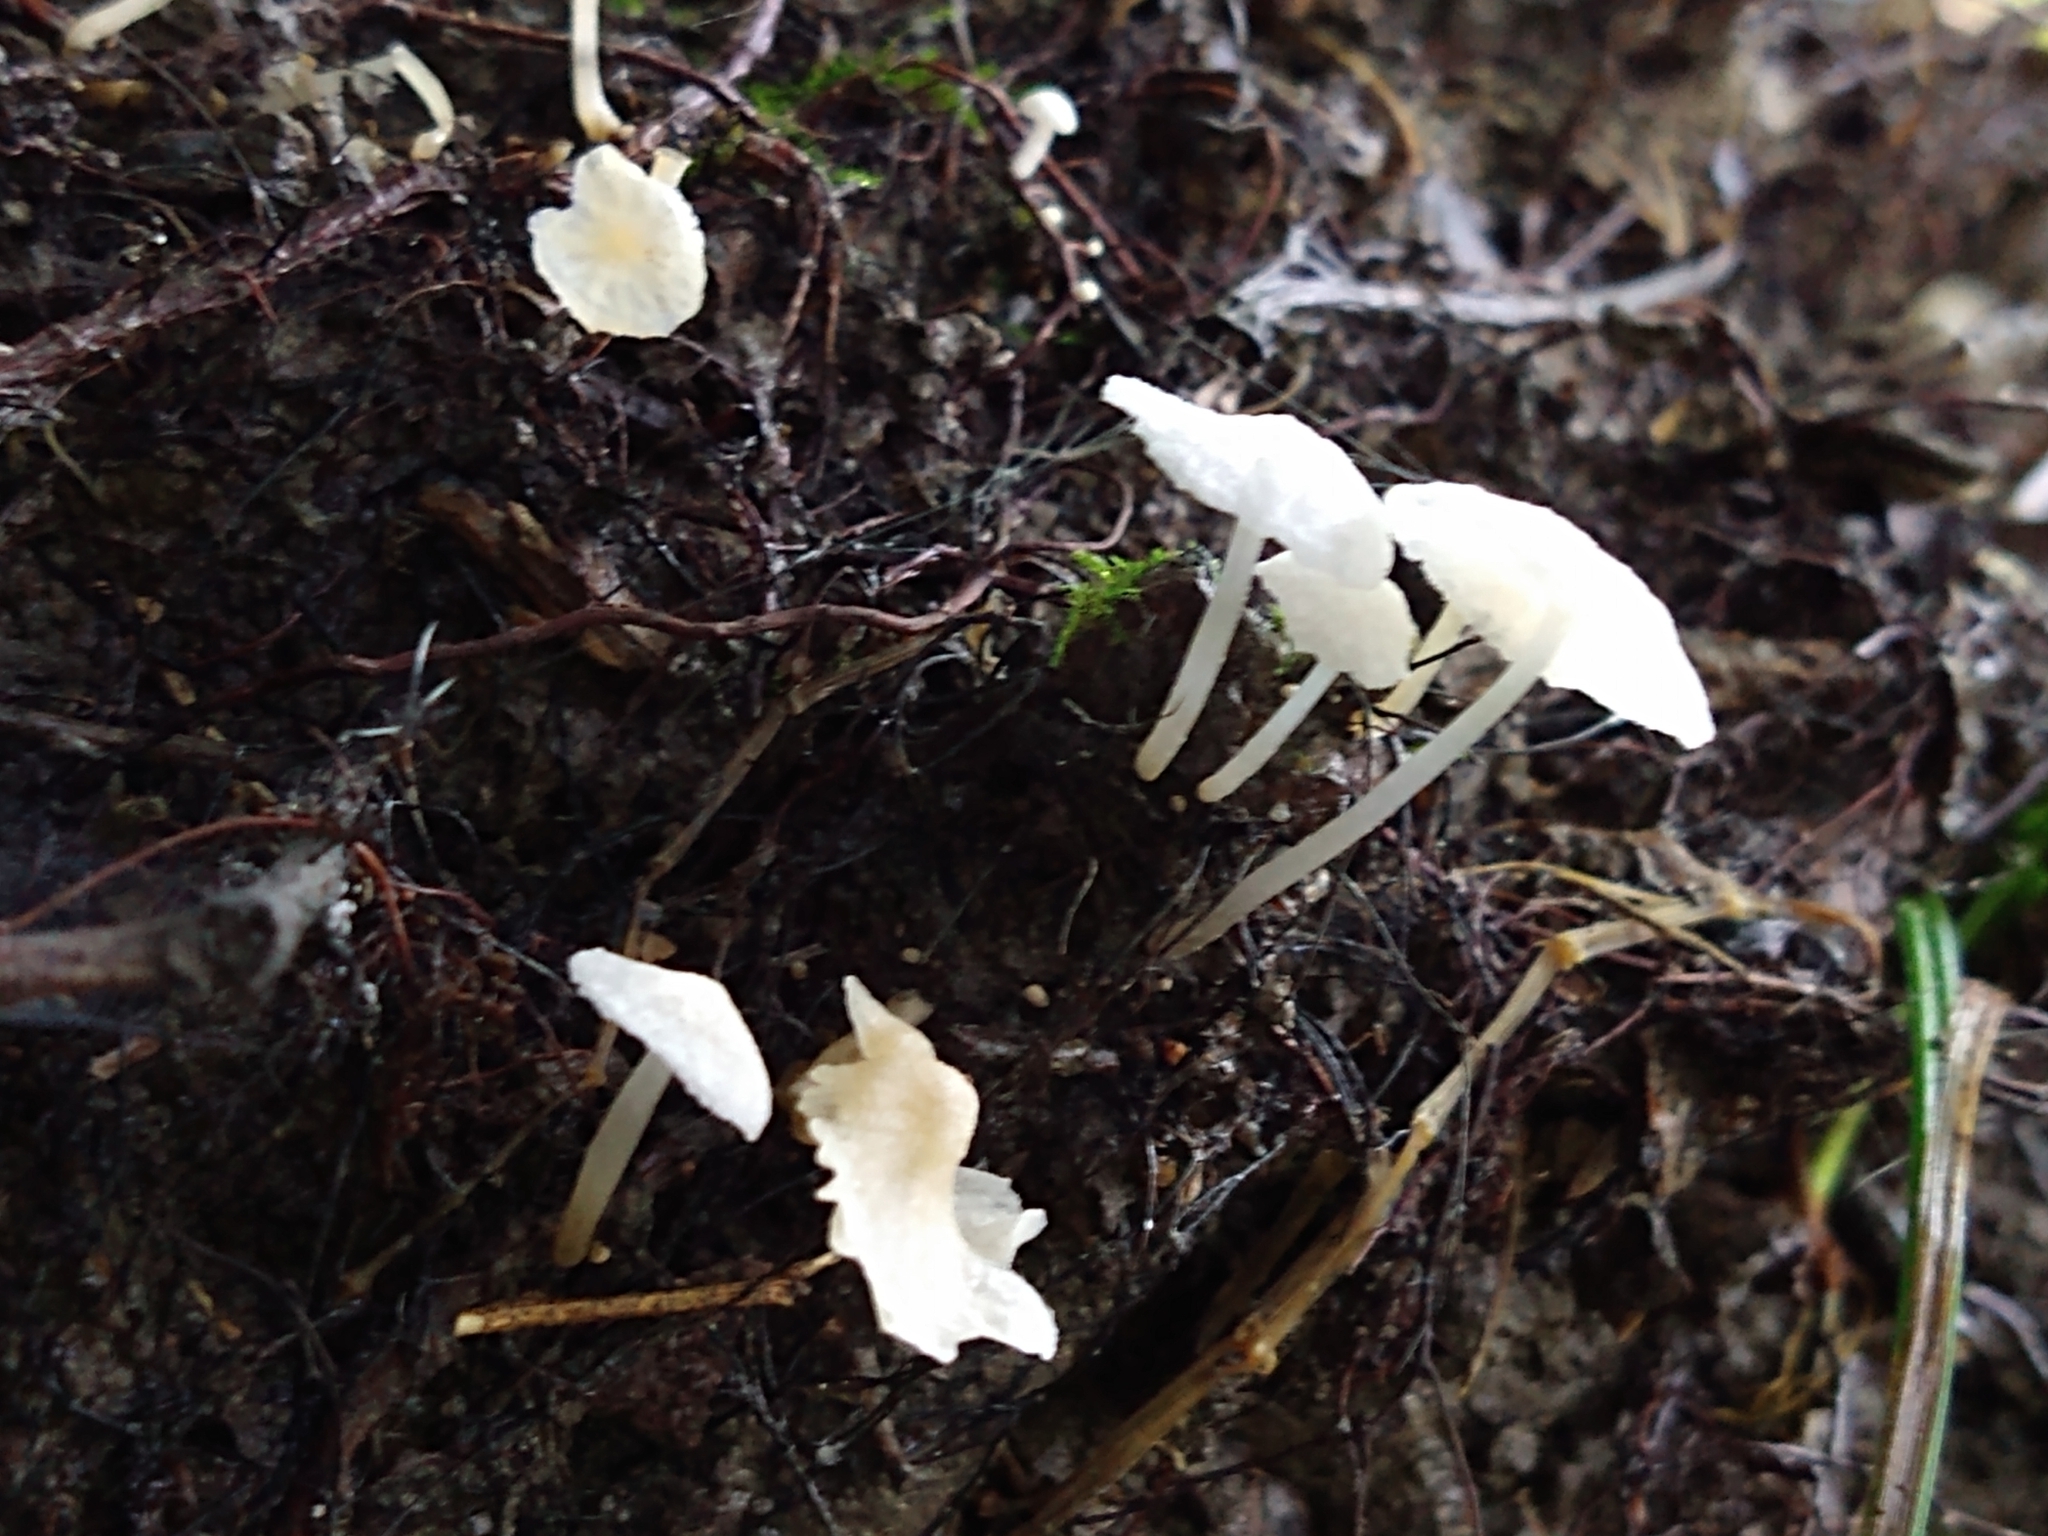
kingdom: Fungi
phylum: Basidiomycota
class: Agaricomycetes
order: Agaricales
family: Omphalotaceae
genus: Marasmiellus
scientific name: Marasmiellus candidus
